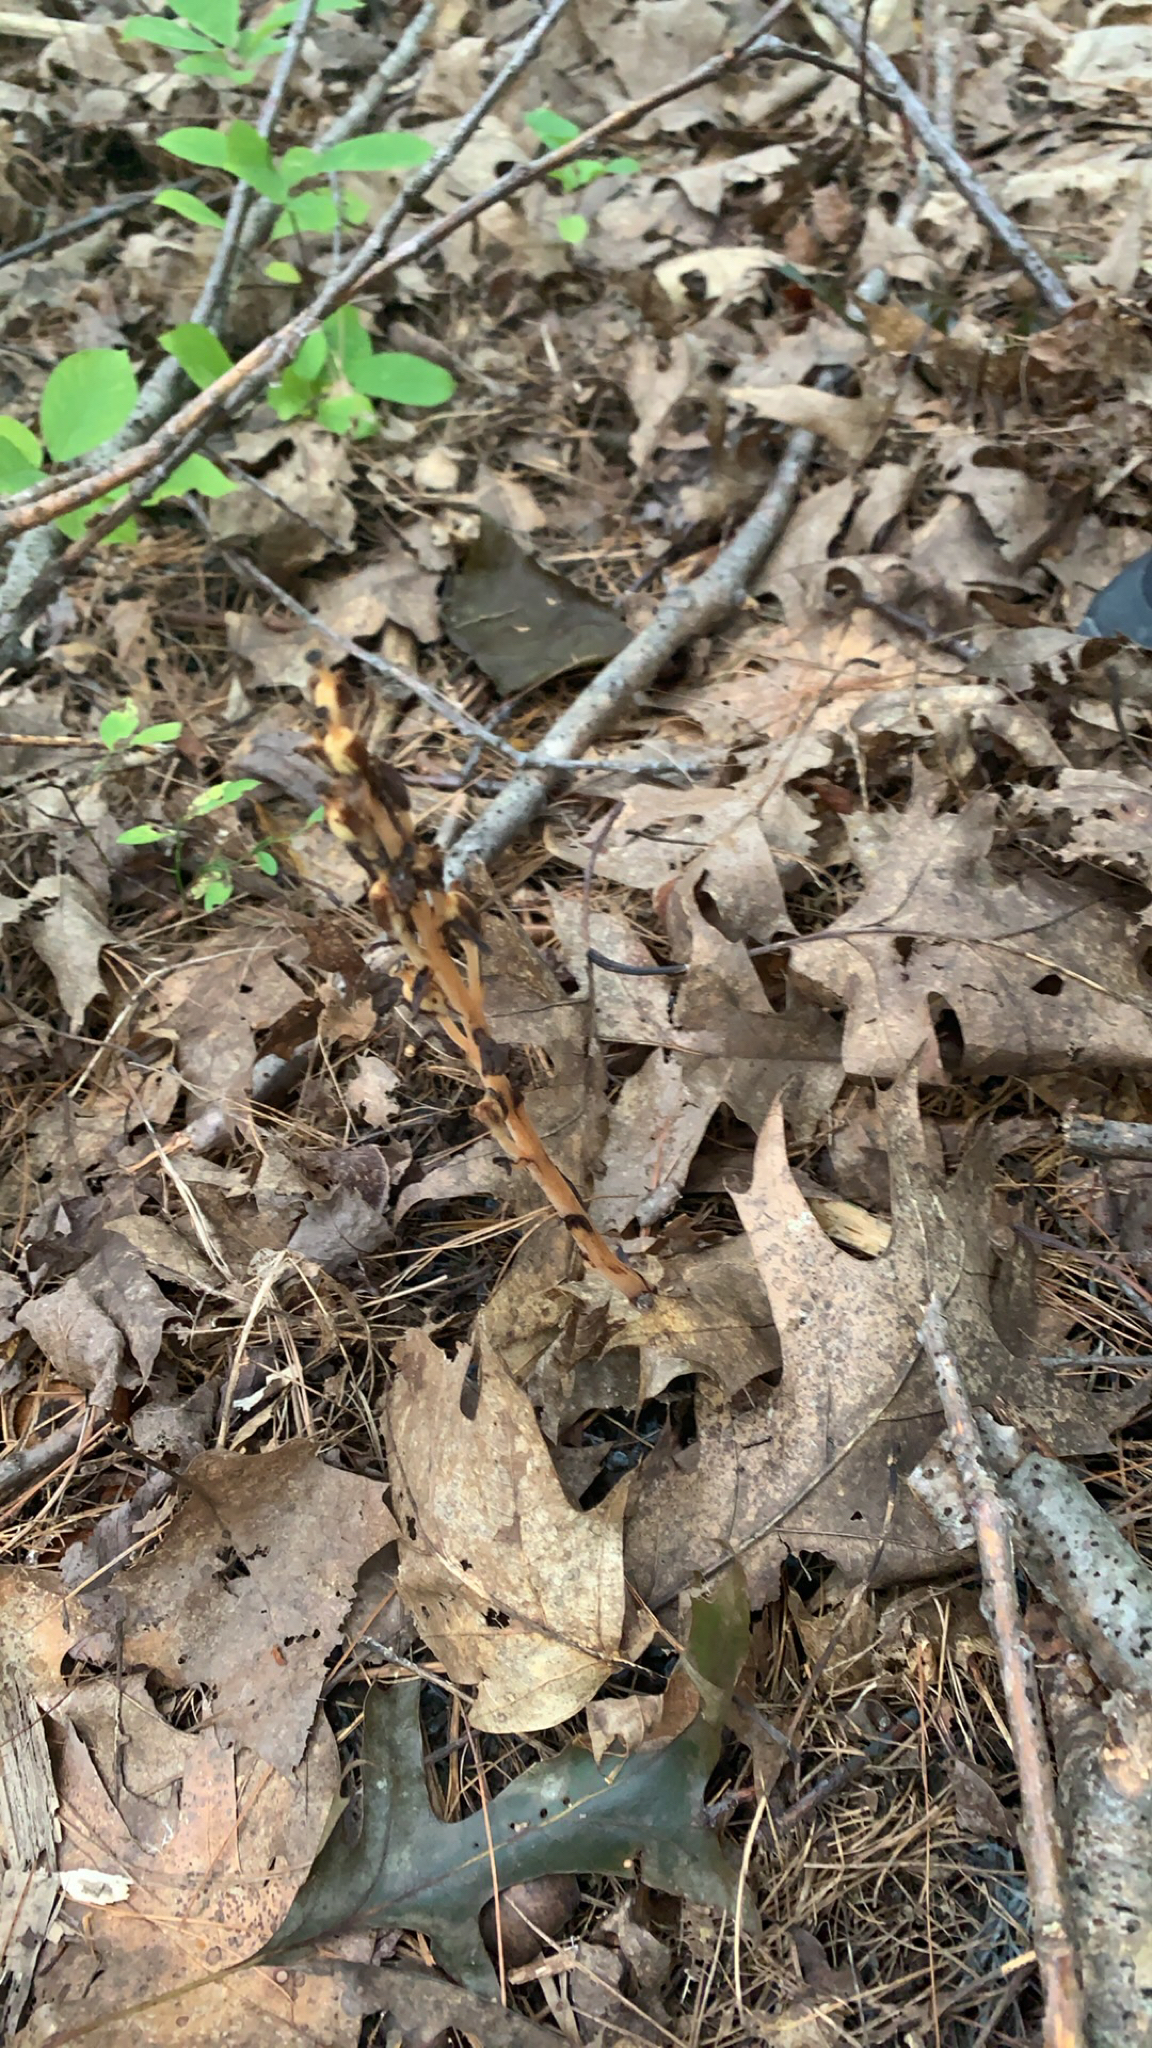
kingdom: Plantae
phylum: Tracheophyta
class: Magnoliopsida
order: Ericales
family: Ericaceae
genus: Hypopitys
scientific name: Hypopitys monotropa
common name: Yellow bird's-nest
